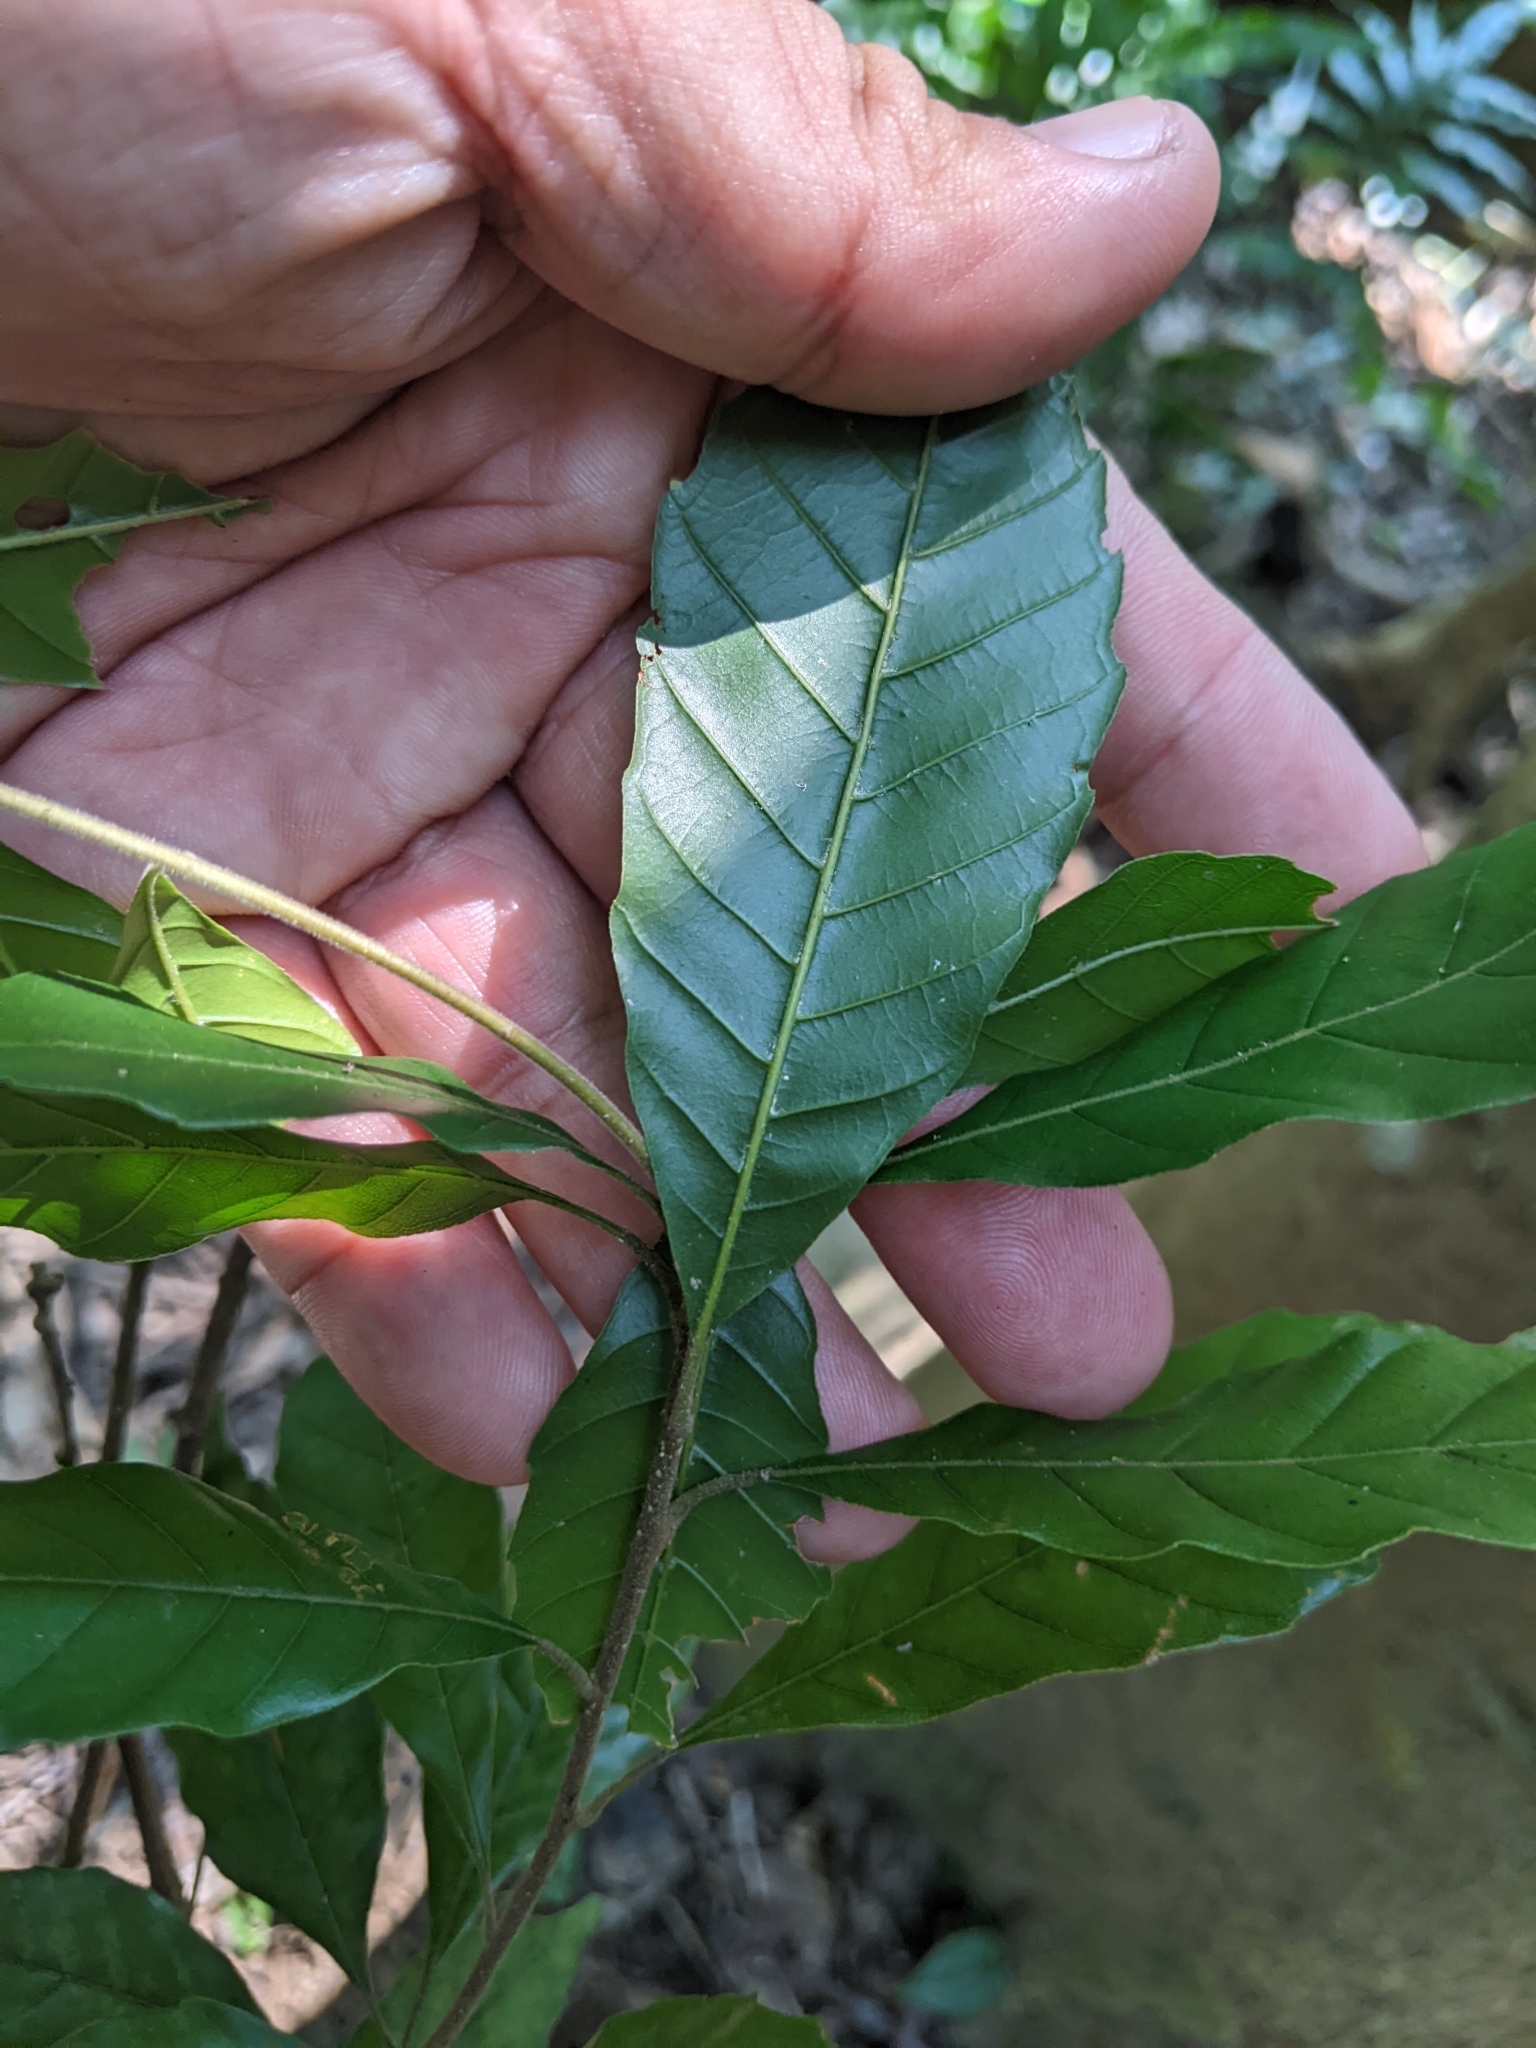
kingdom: Plantae
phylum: Tracheophyta
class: Magnoliopsida
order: Fagales
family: Fagaceae
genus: Lithocarpus
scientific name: Lithocarpus konishii
